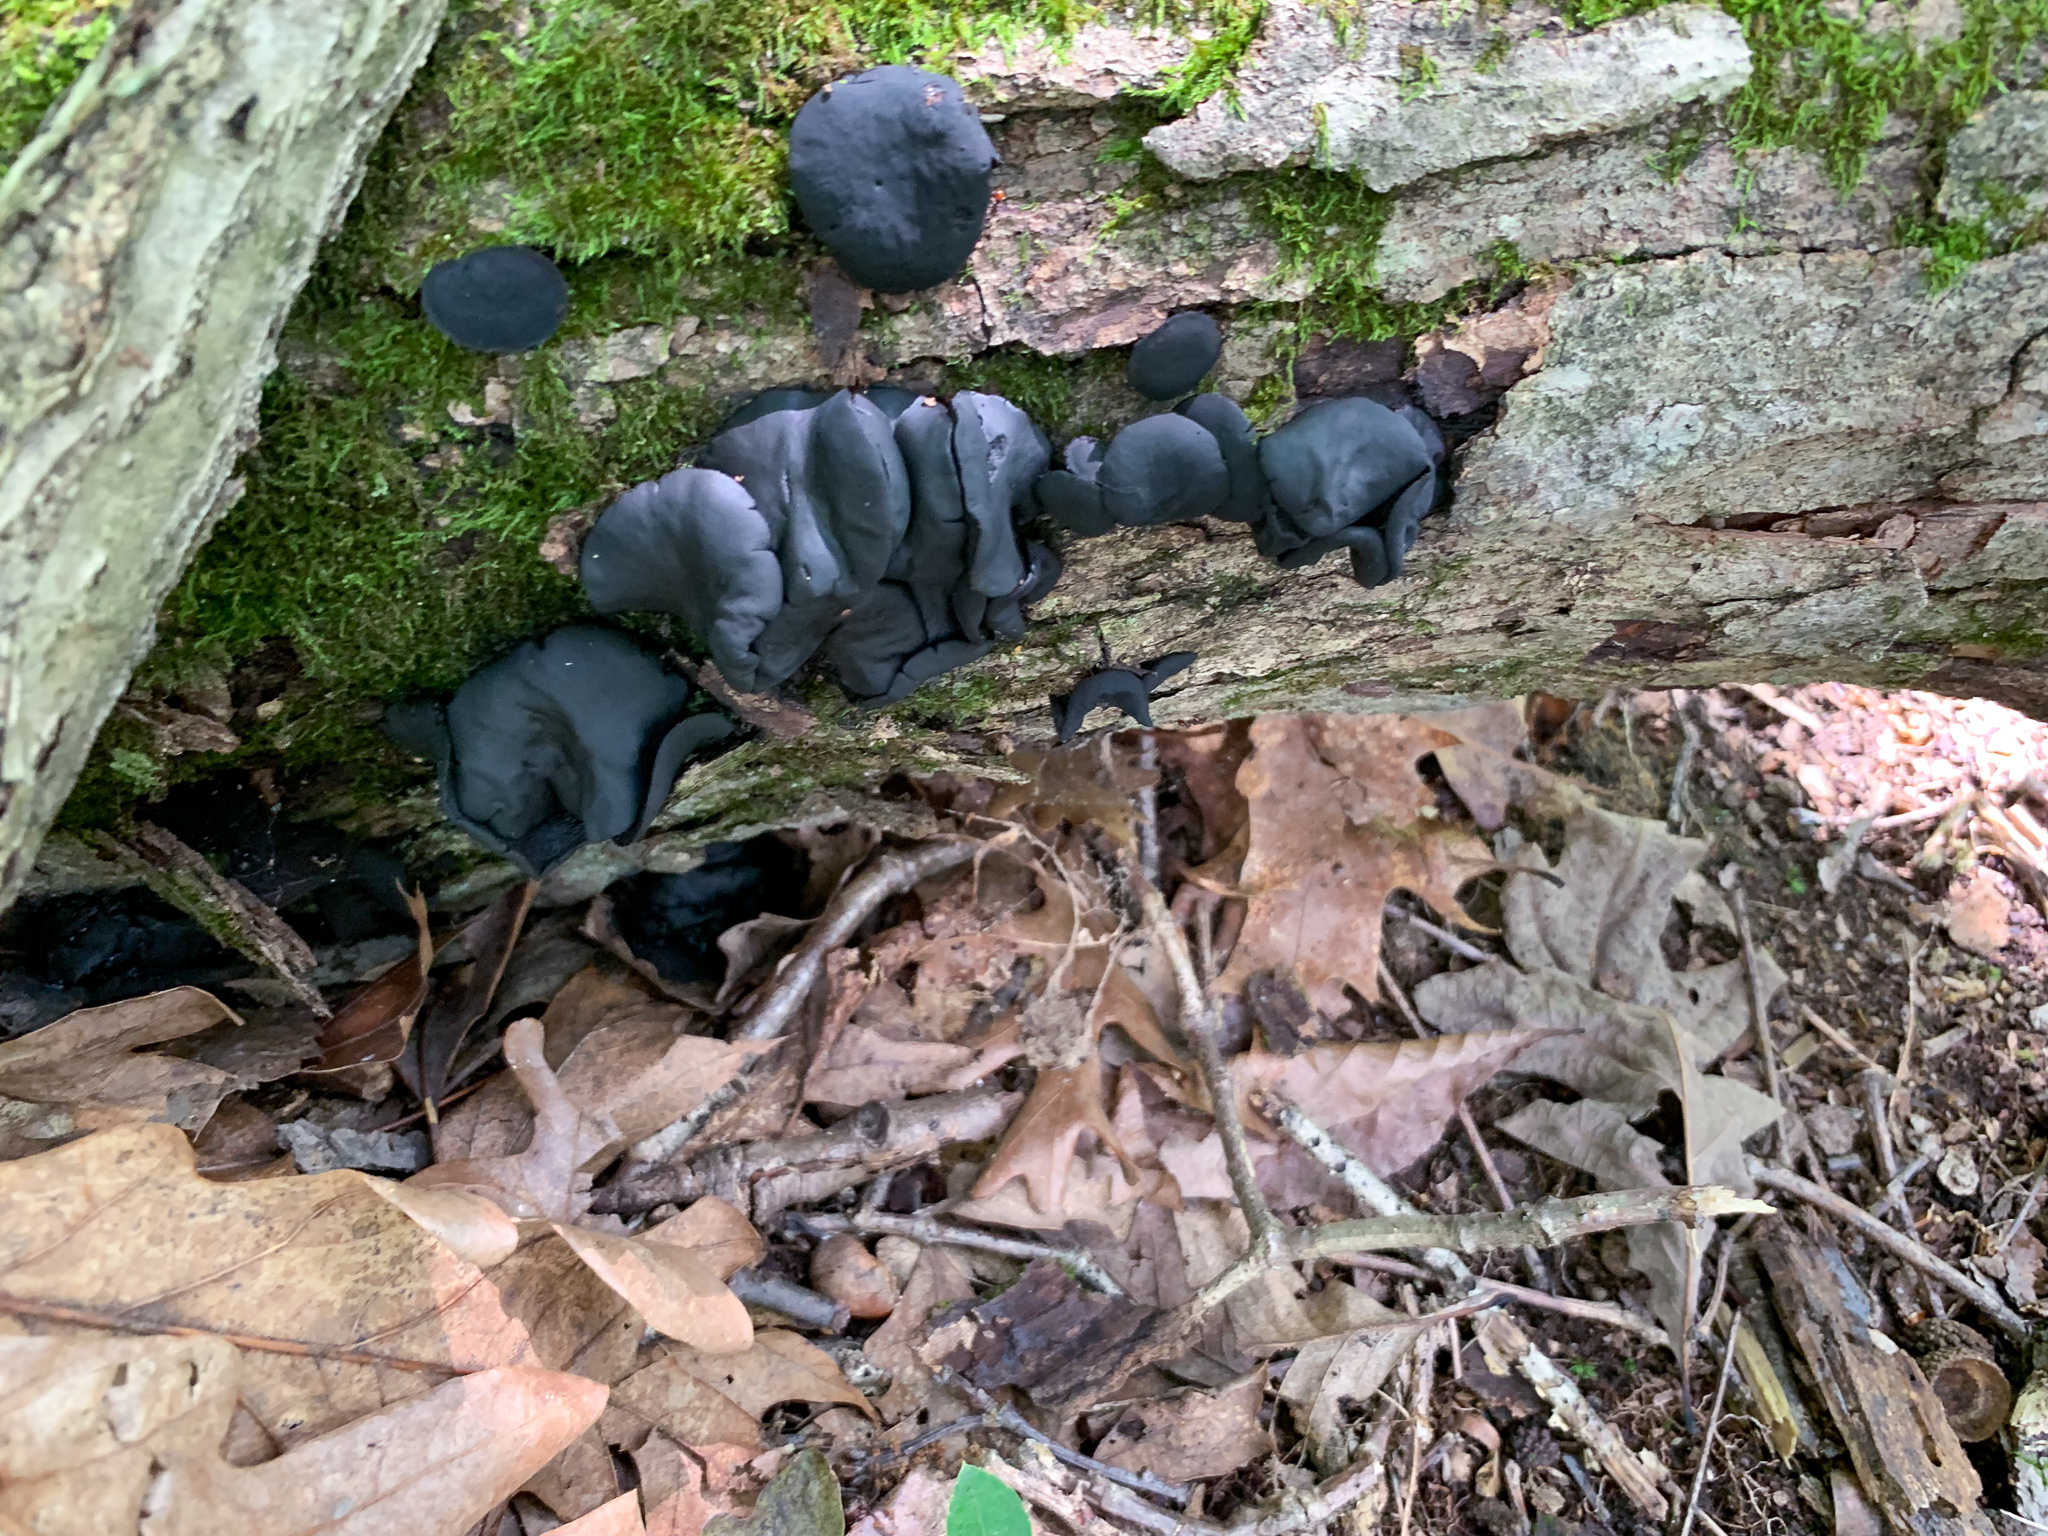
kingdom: Fungi
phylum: Ascomycota
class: Leotiomycetes
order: Phacidiales
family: Phacidiaceae
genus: Bulgaria
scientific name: Bulgaria inquinans
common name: Black bulgar
